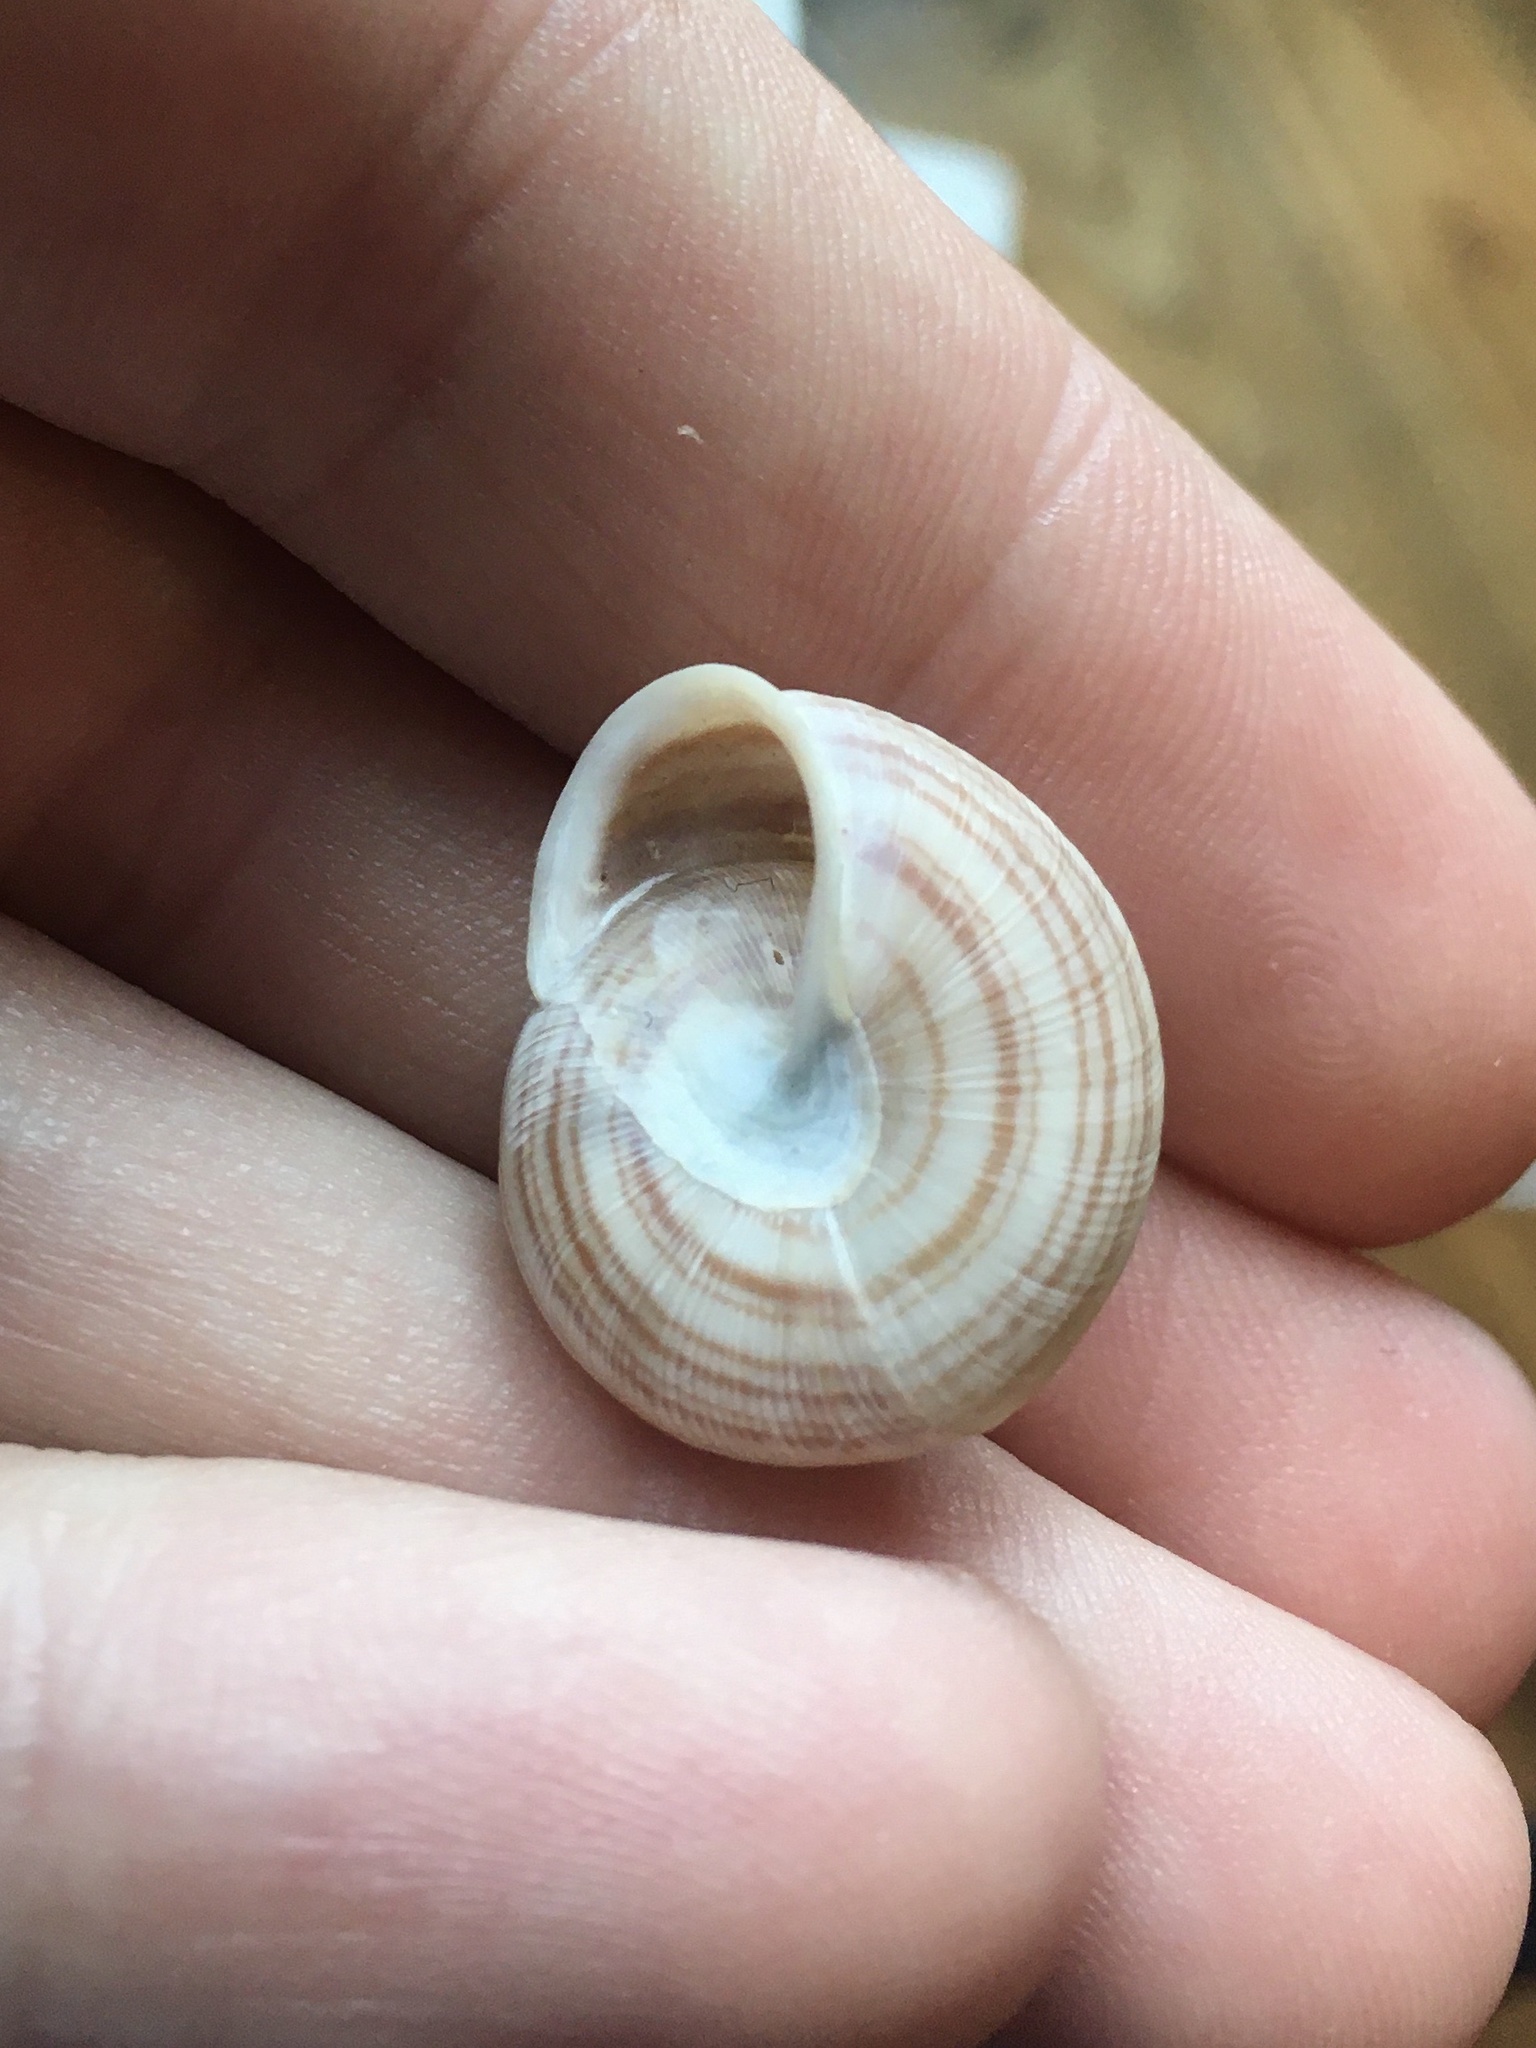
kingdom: Animalia
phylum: Mollusca
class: Gastropoda
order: Stylommatophora
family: Polygyridae
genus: Webbhelix
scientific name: Webbhelix multilineata
